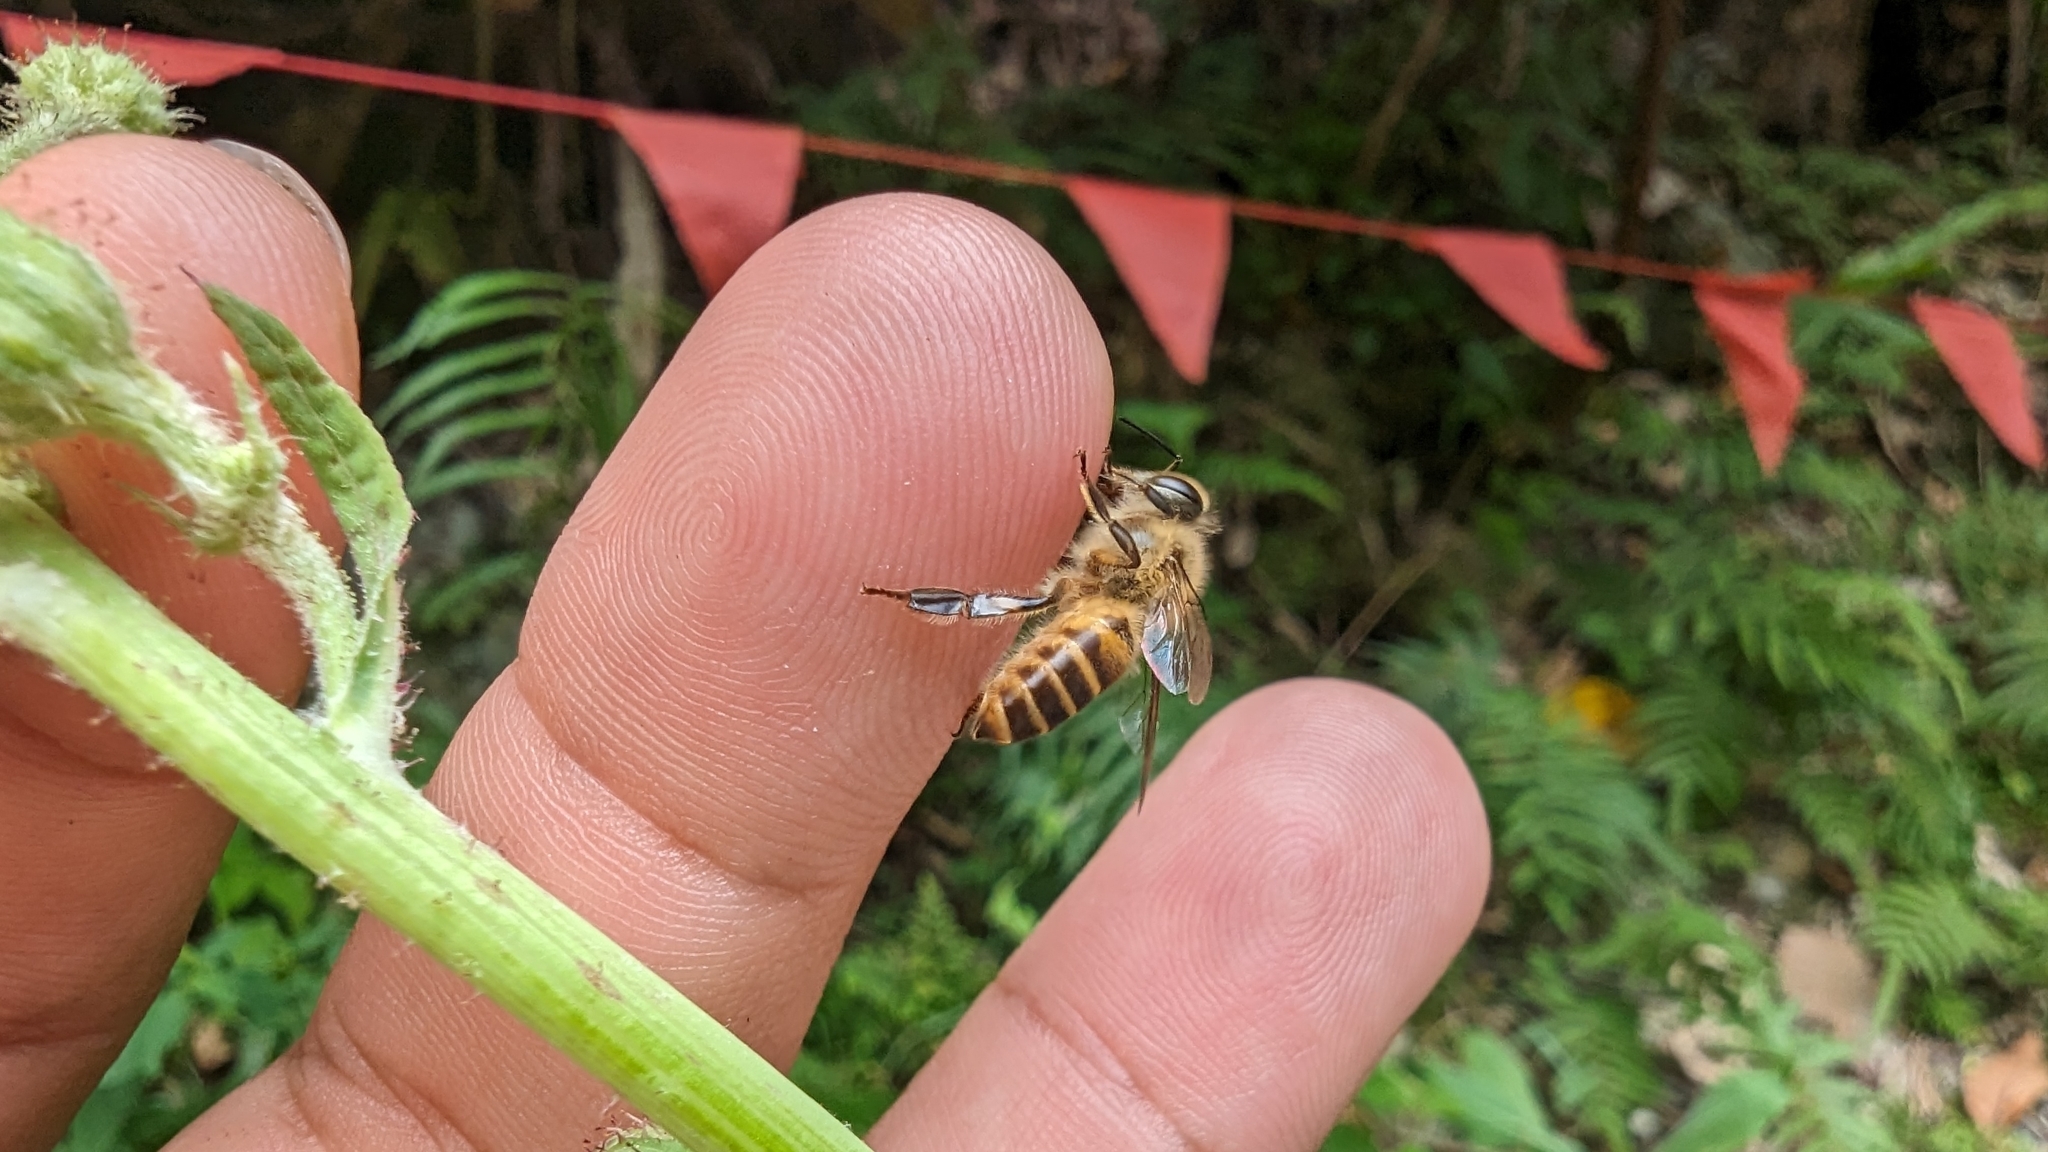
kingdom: Animalia
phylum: Arthropoda
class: Insecta
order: Hymenoptera
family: Apidae
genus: Apis
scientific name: Apis cerana
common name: Honey bee
